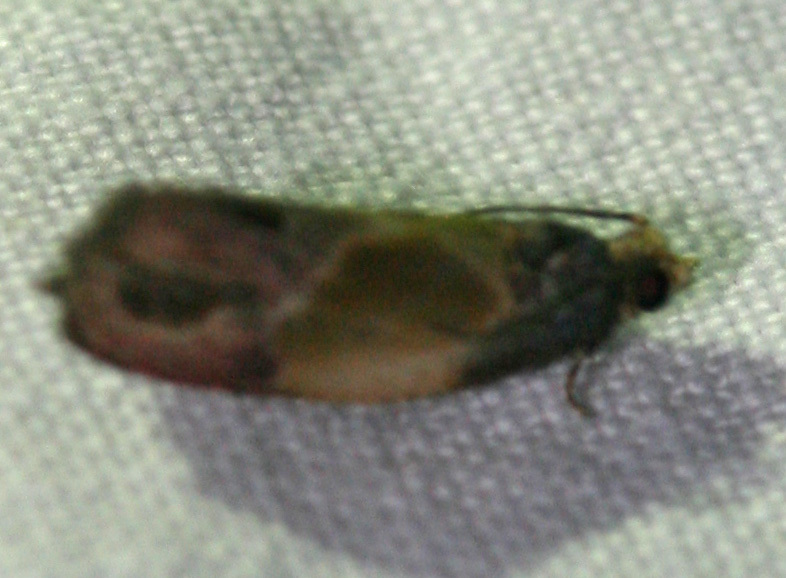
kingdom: Animalia
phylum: Arthropoda
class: Insecta
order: Lepidoptera
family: Tortricidae
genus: Eumarozia
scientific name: Eumarozia malachitana
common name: Sculptured moth
